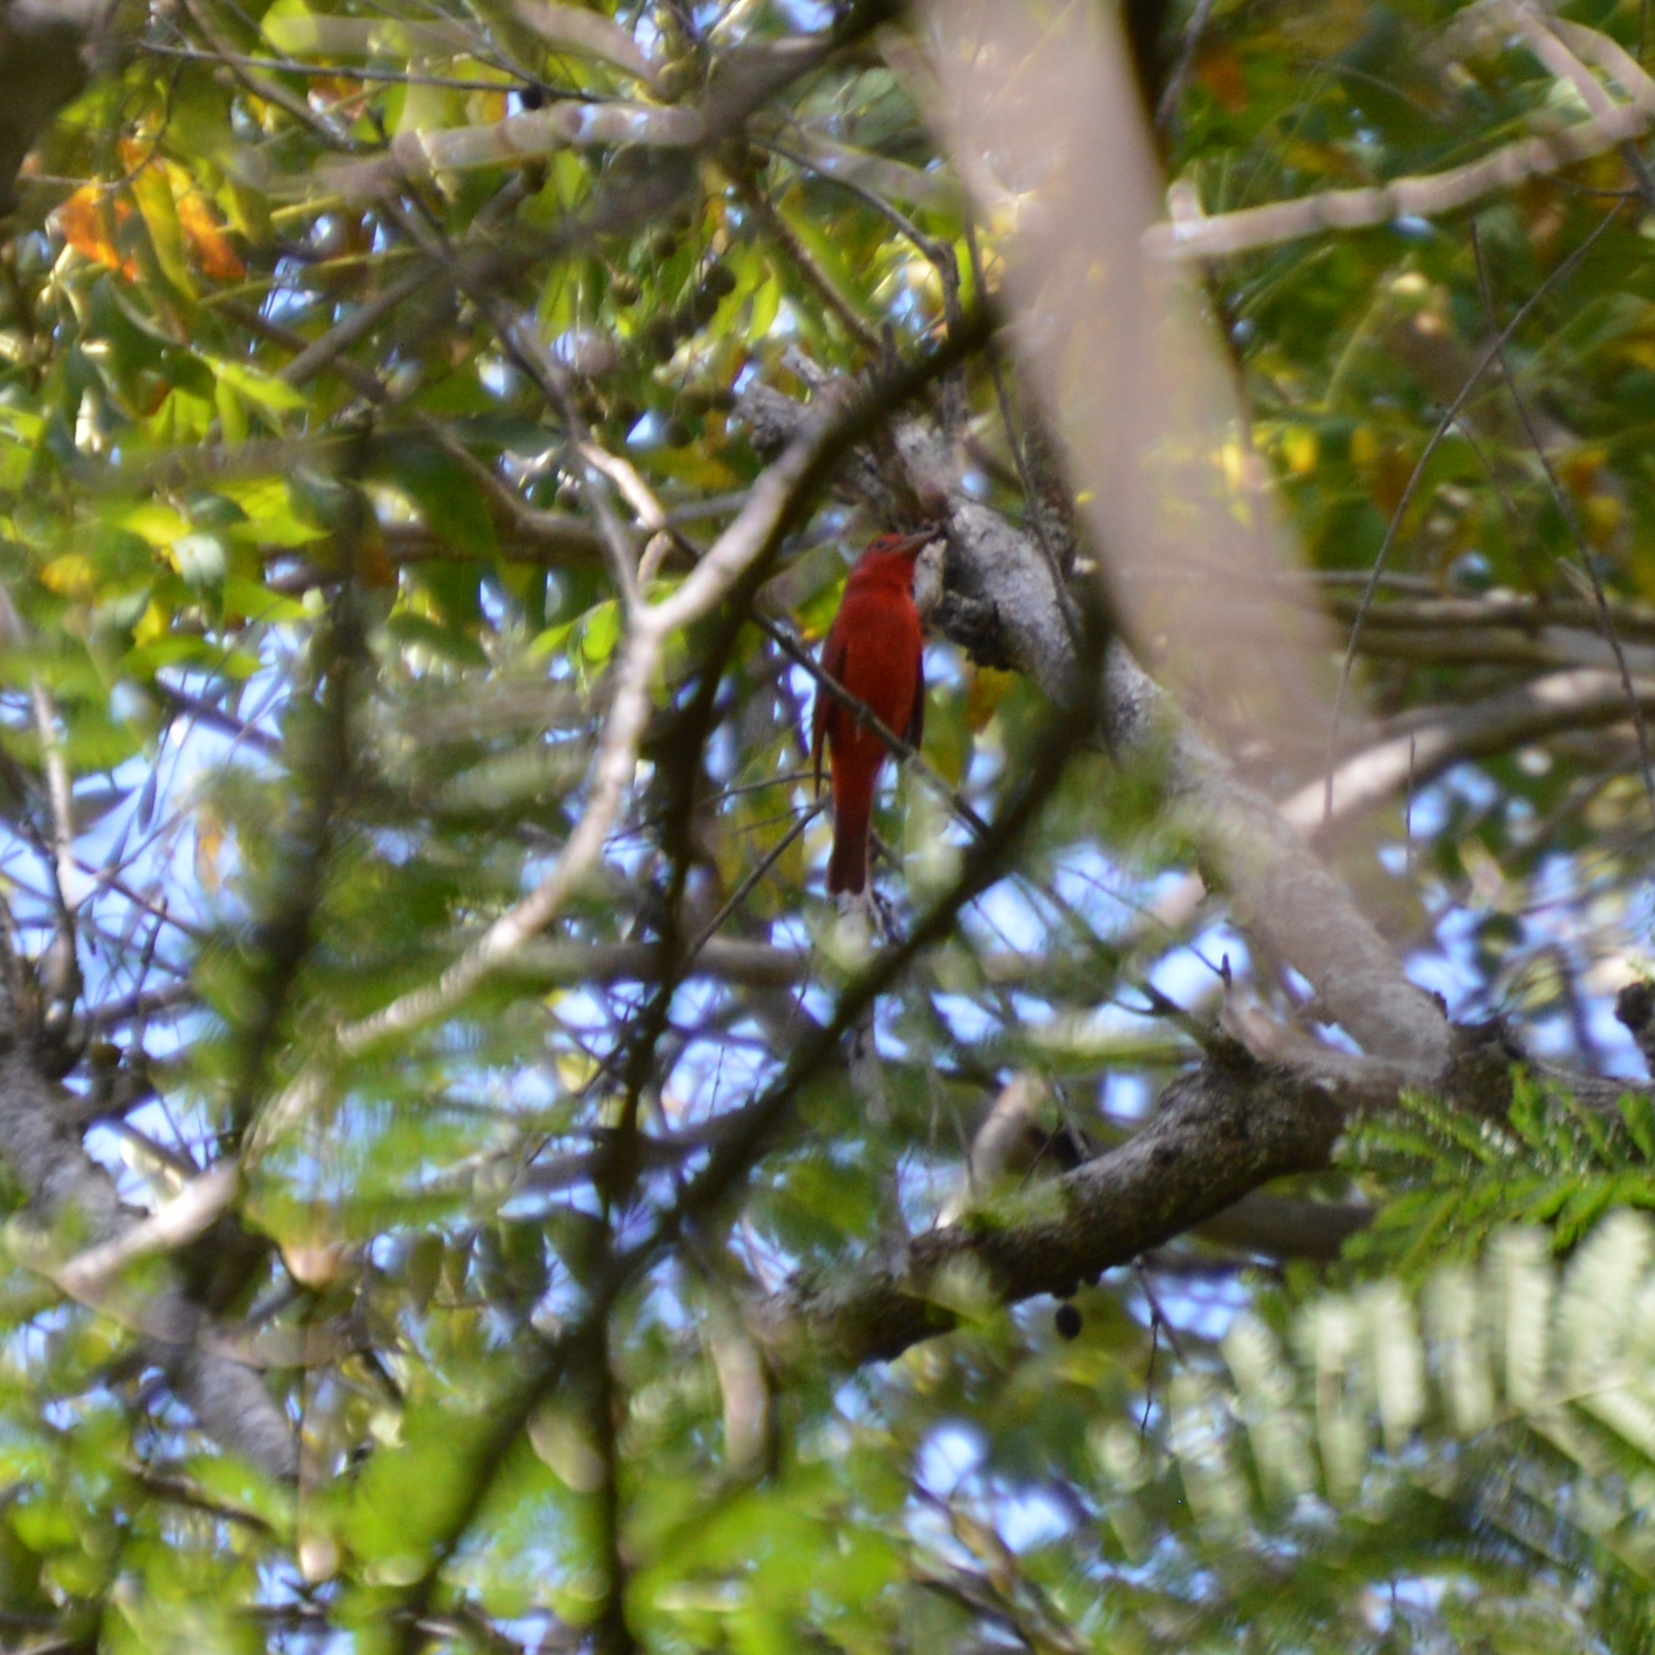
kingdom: Animalia
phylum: Chordata
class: Aves
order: Passeriformes
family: Cardinalidae
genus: Piranga
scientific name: Piranga rubra
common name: Summer tanager
